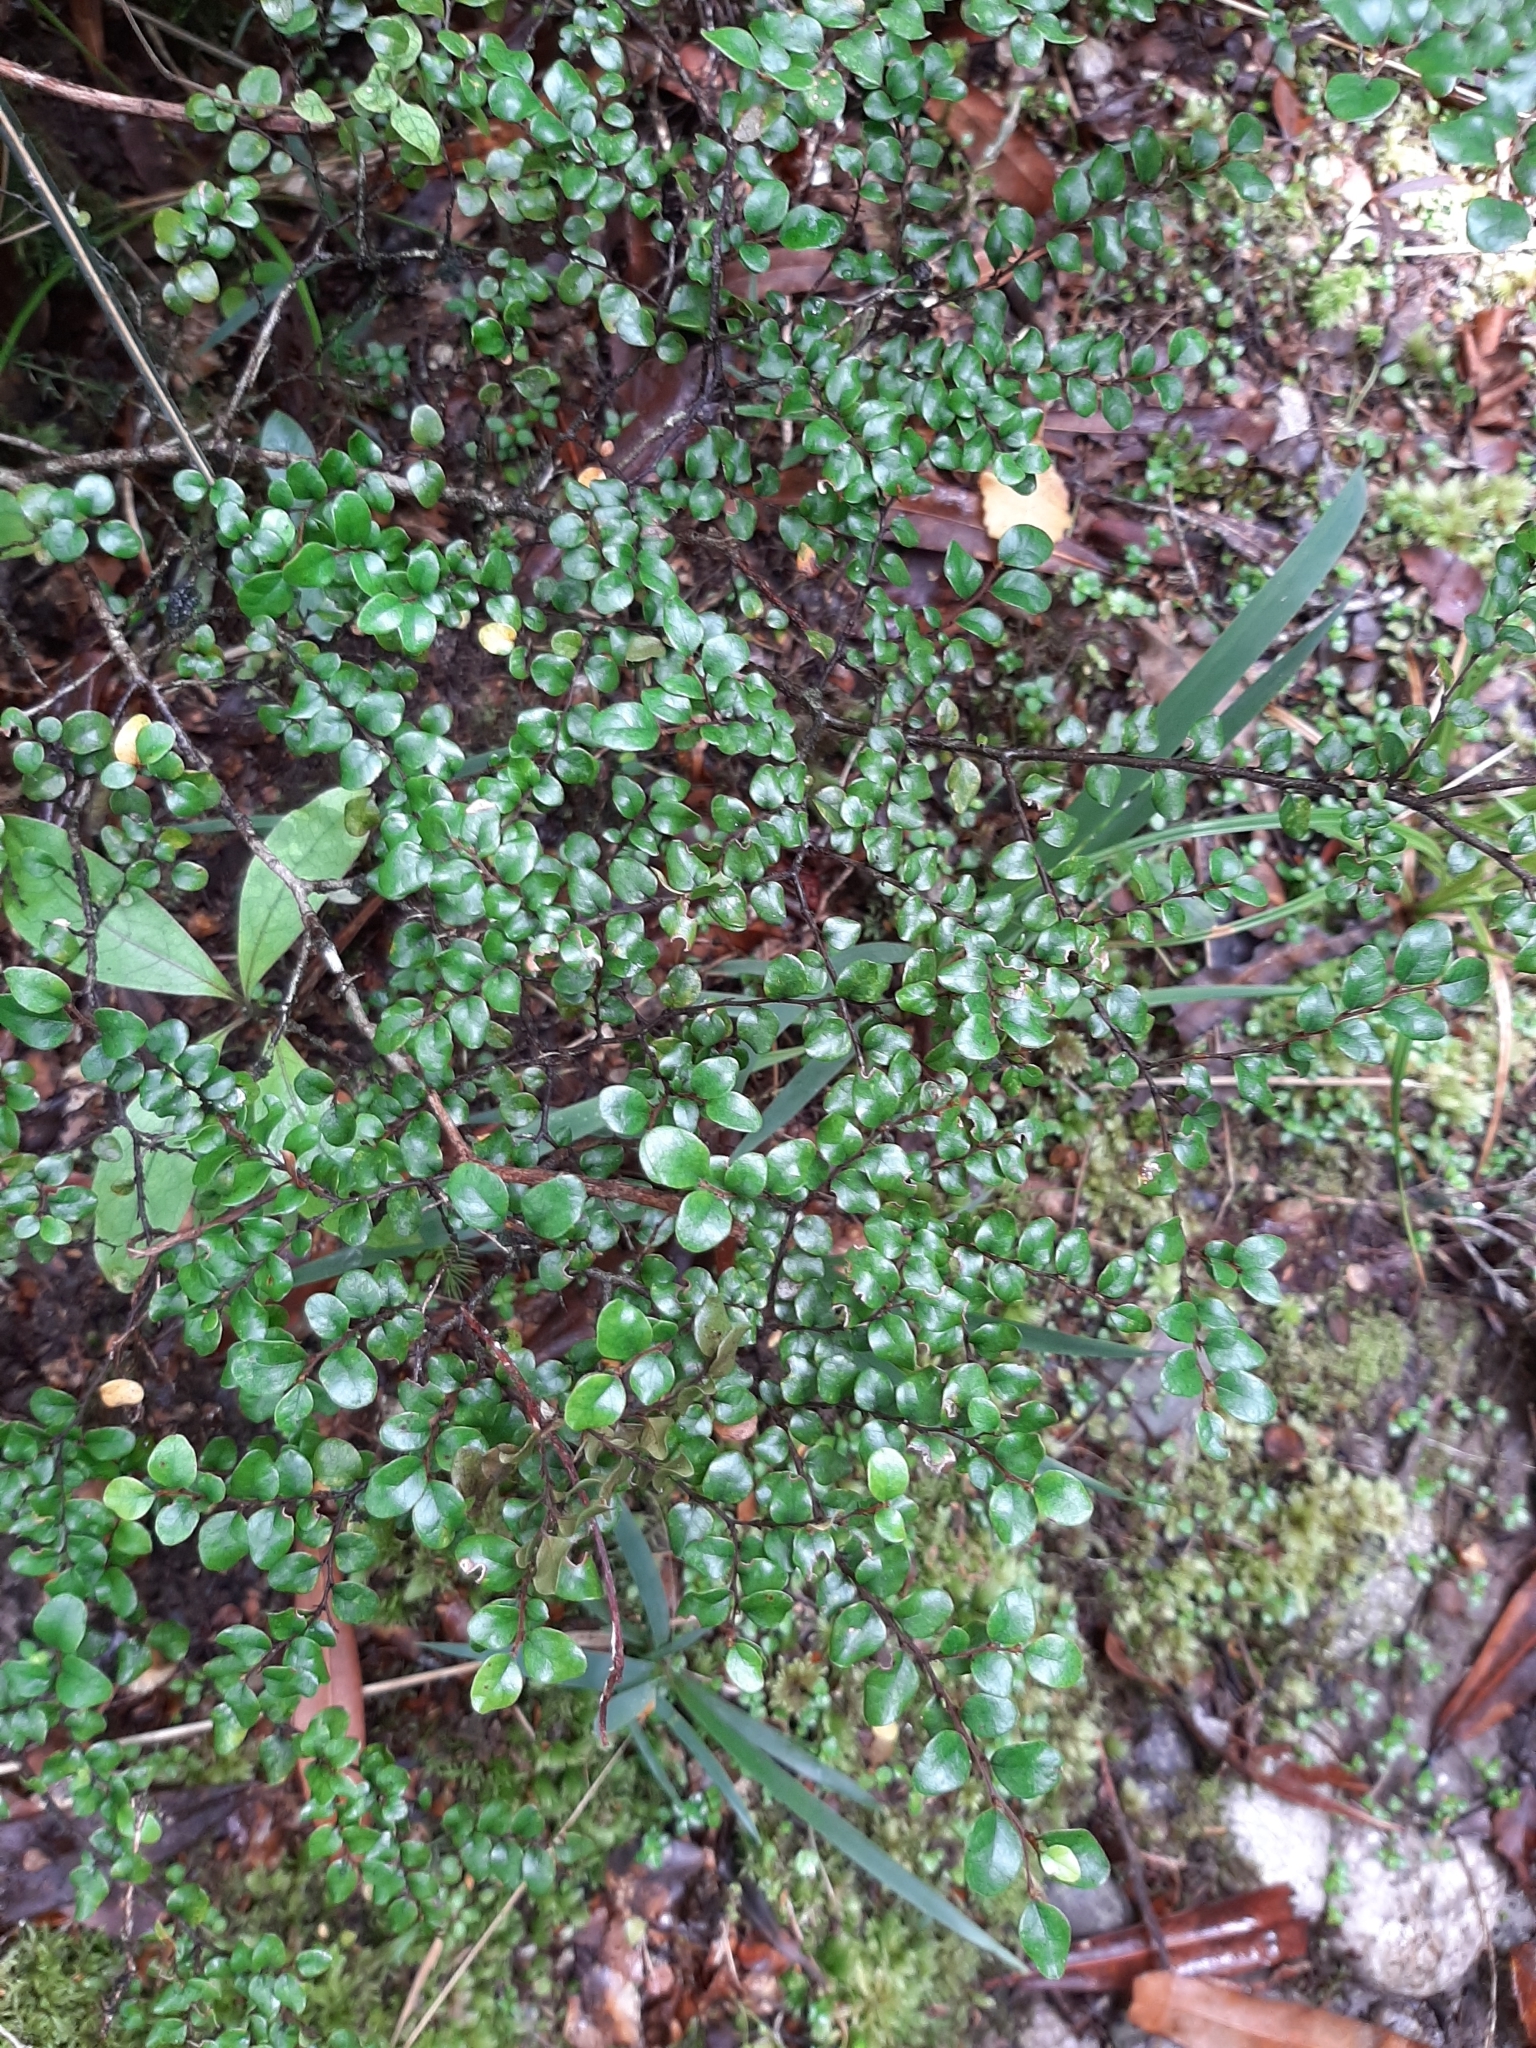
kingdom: Plantae
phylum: Tracheophyta
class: Magnoliopsida
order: Fagales
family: Nothofagaceae
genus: Nothofagus
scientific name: Nothofagus cliffortioides
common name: Mountain beech
